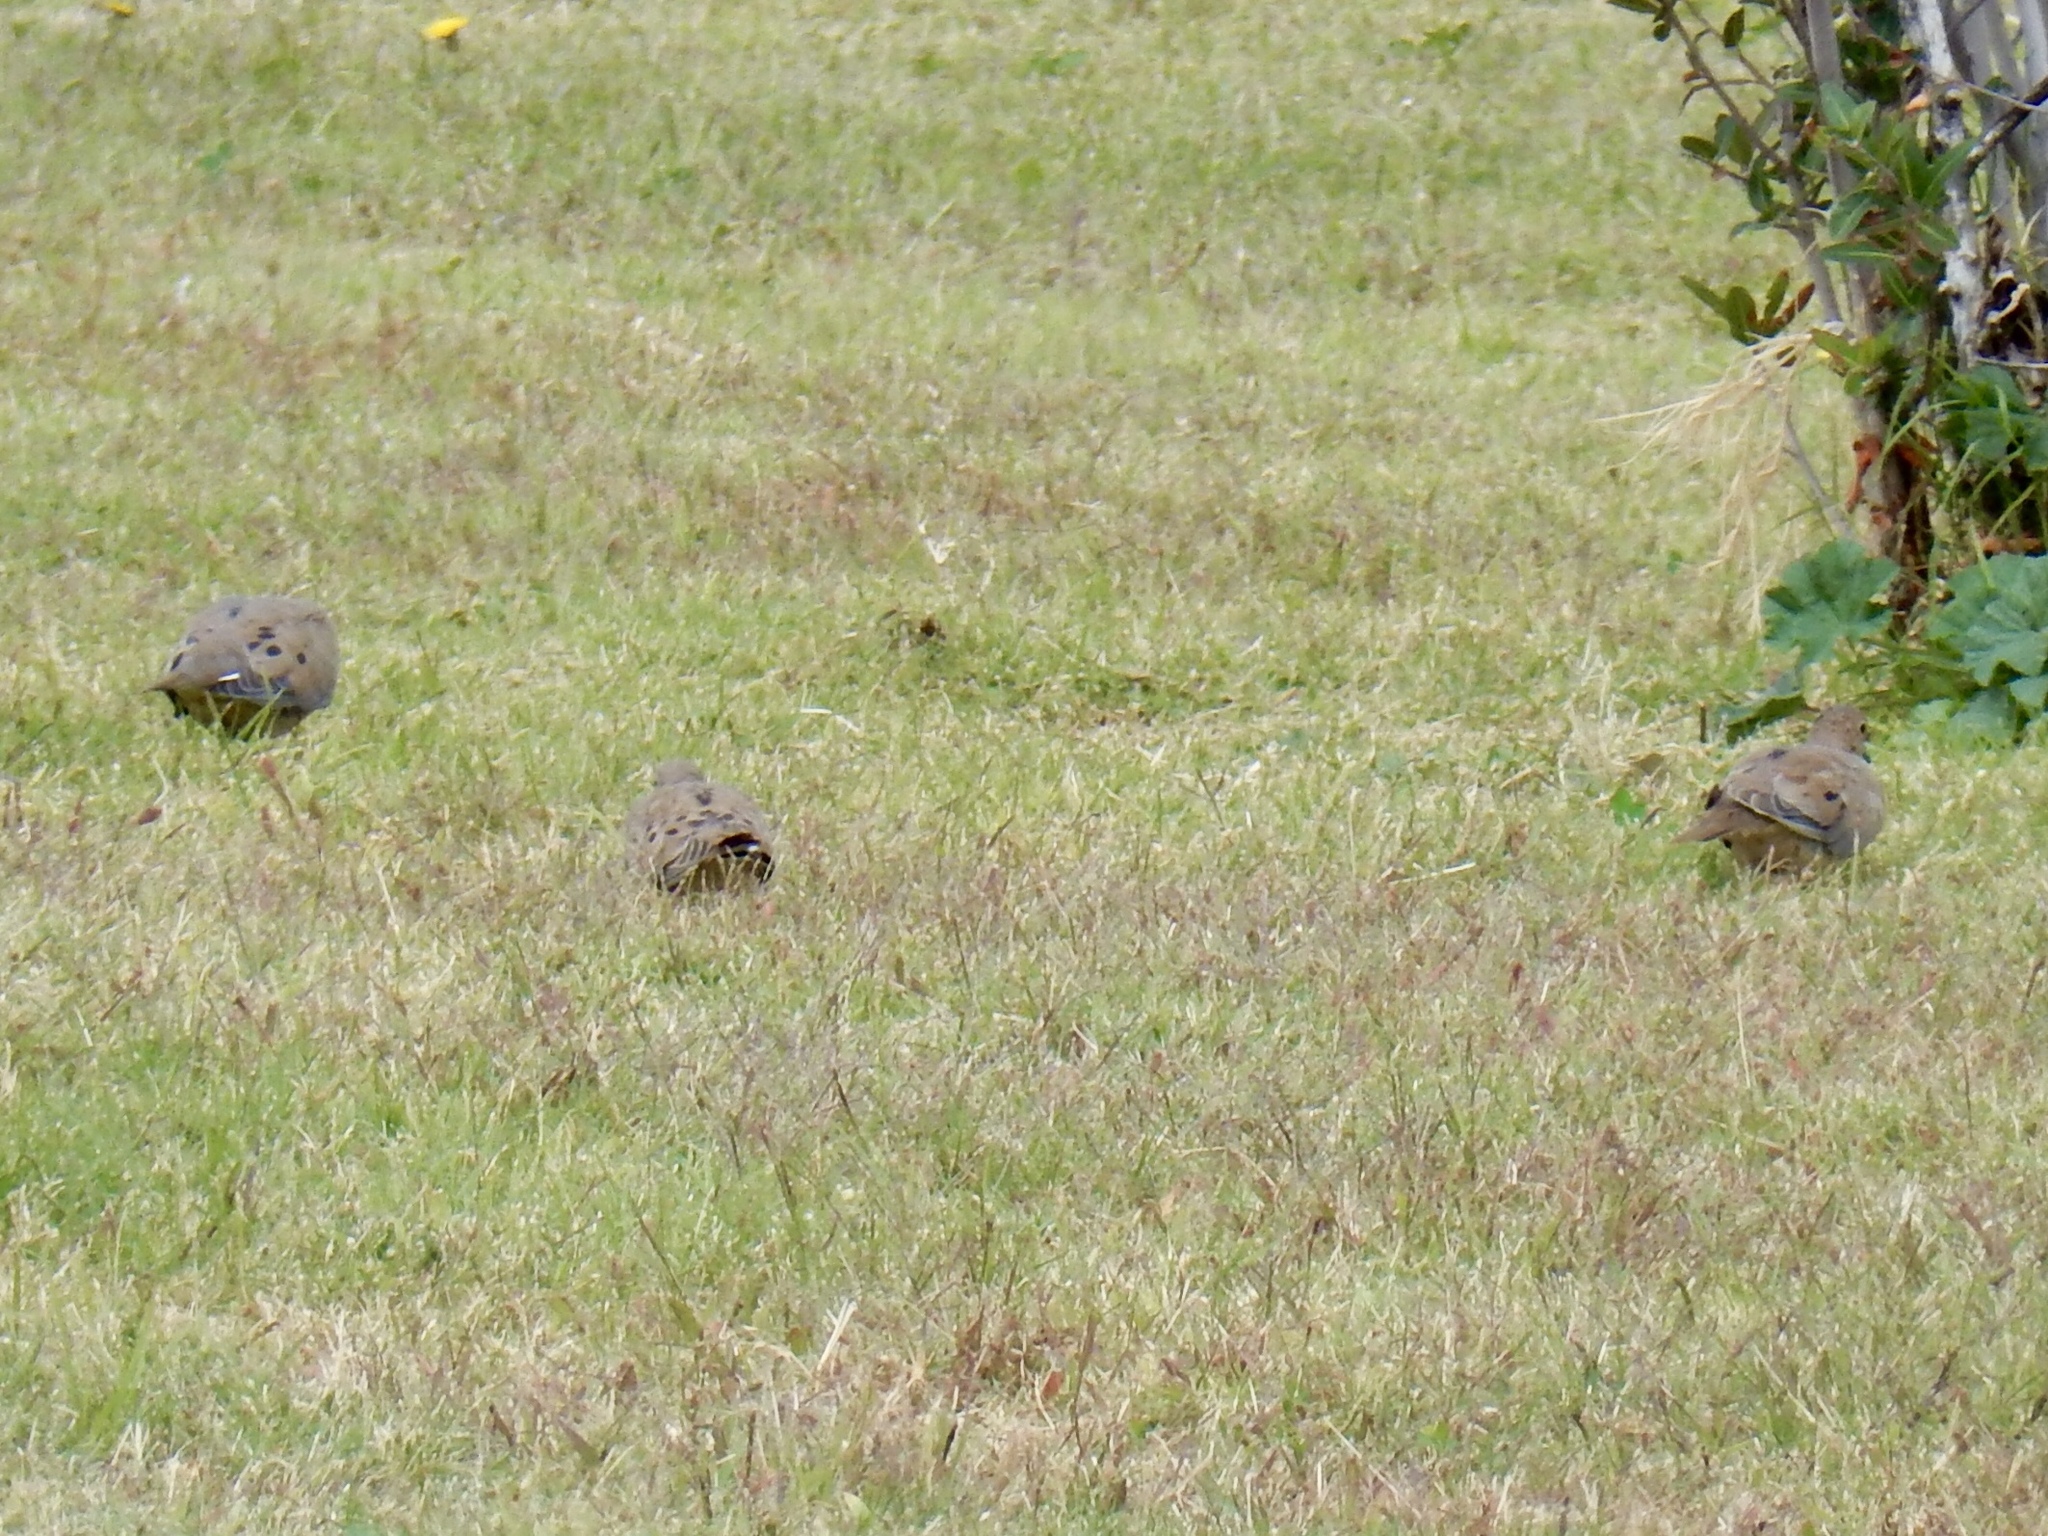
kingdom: Animalia
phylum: Chordata
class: Aves
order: Columbiformes
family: Columbidae
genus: Zenaida
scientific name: Zenaida macroura
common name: Mourning dove
